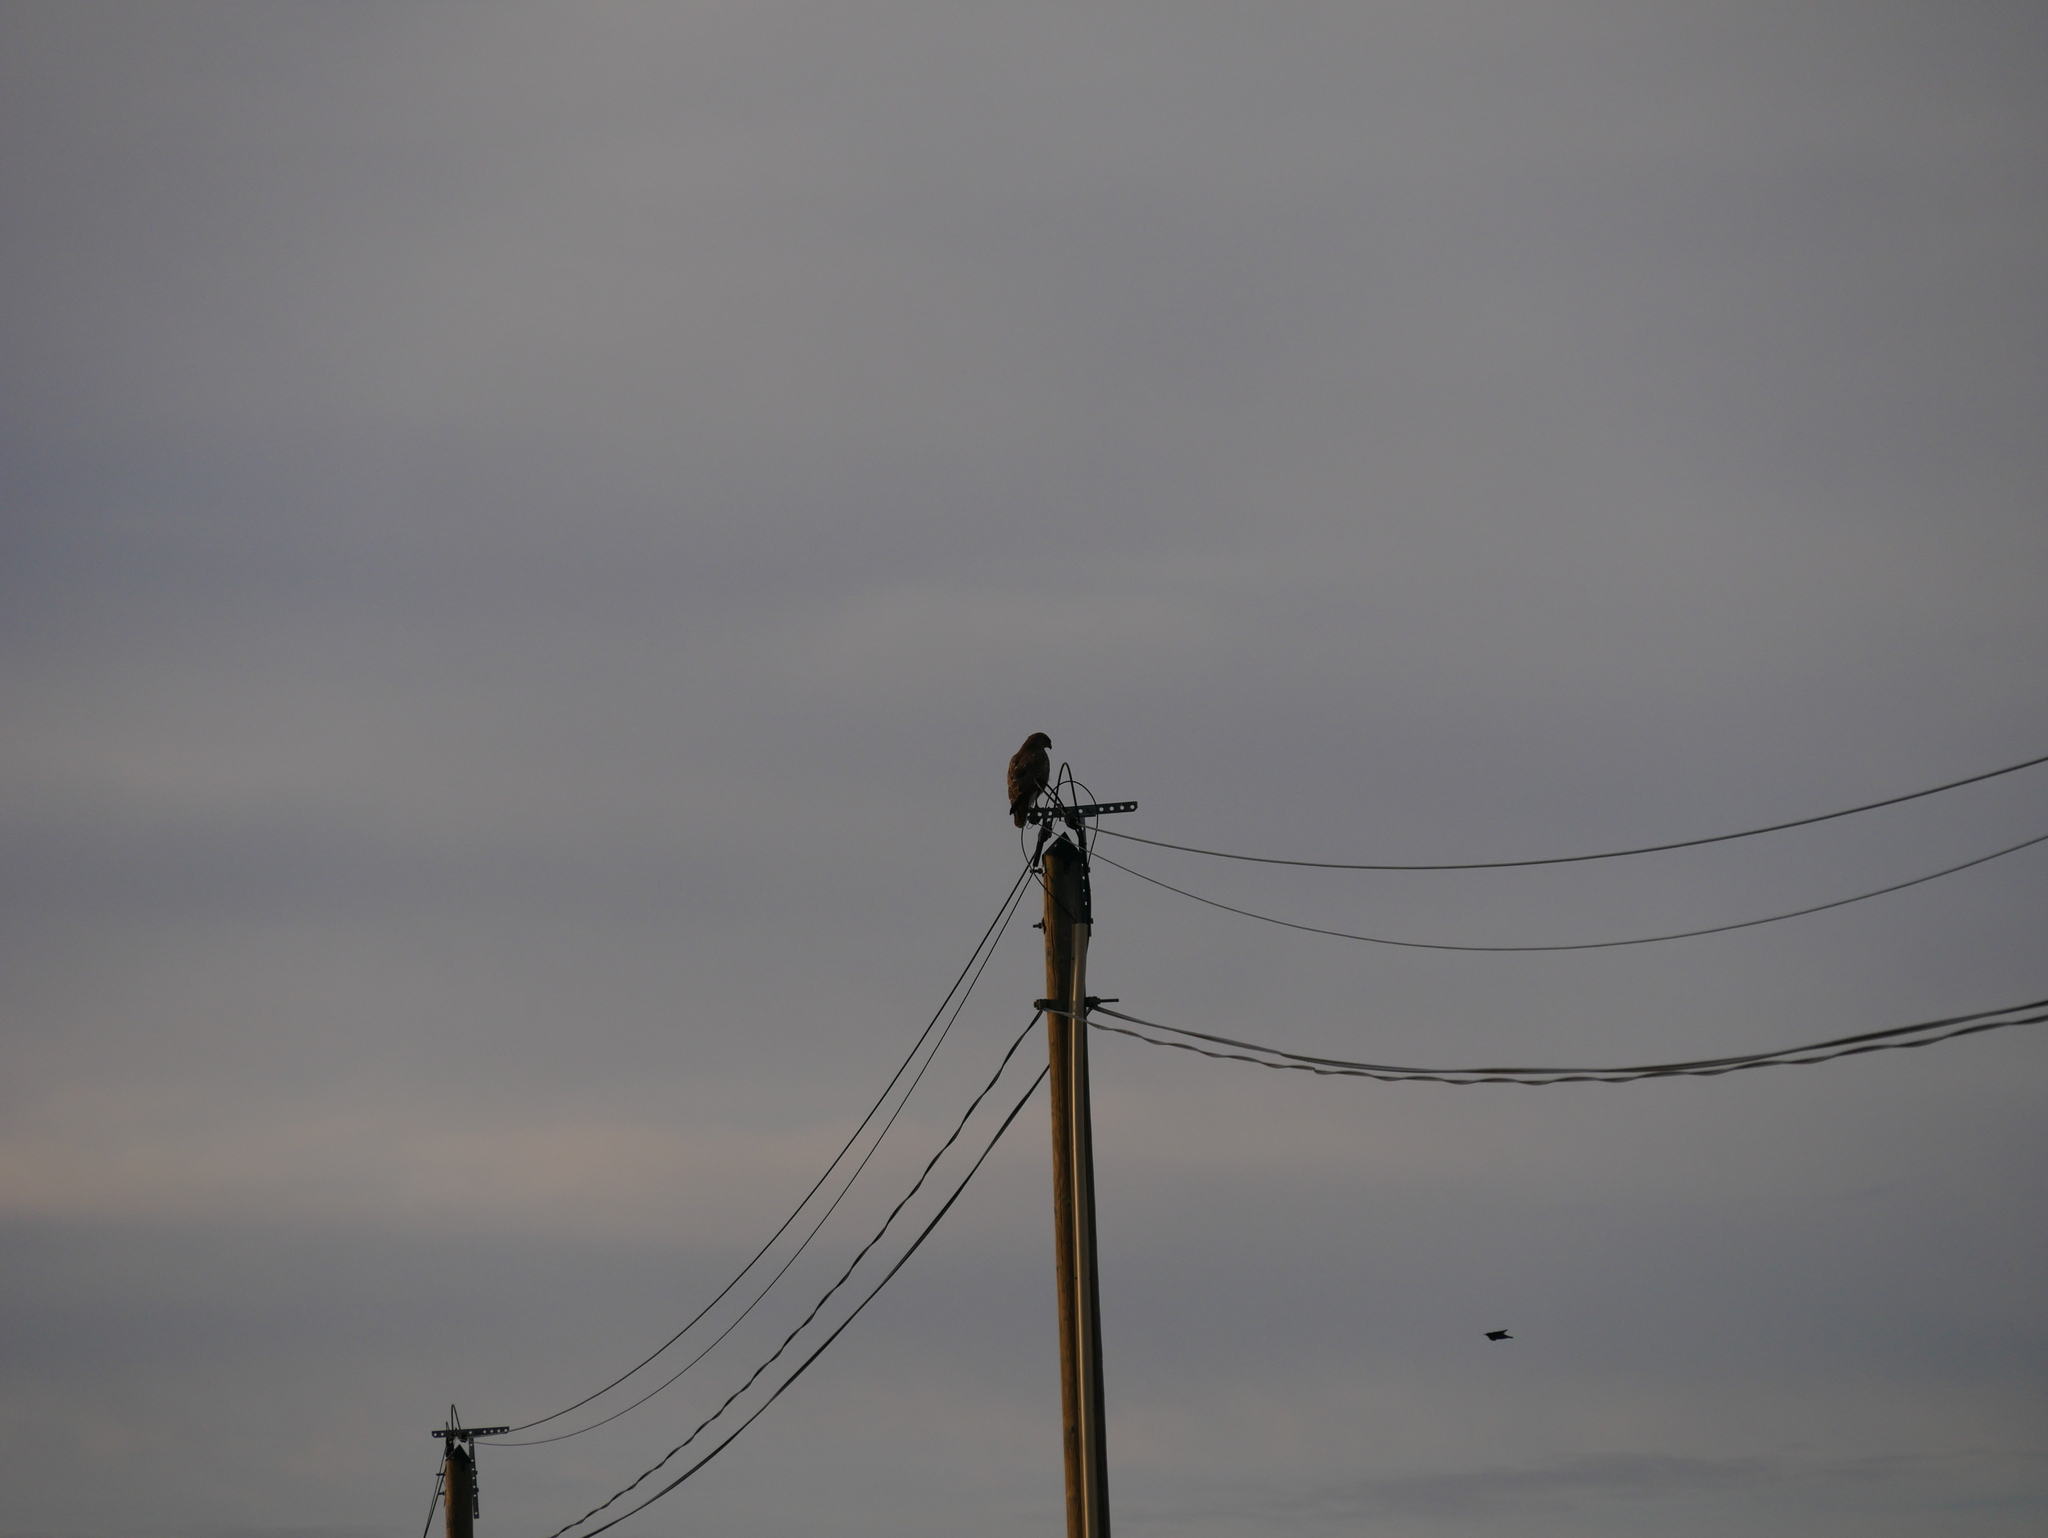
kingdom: Animalia
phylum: Chordata
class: Aves
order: Accipitriformes
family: Accipitridae
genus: Buteo
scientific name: Buteo buteo
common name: Common buzzard
